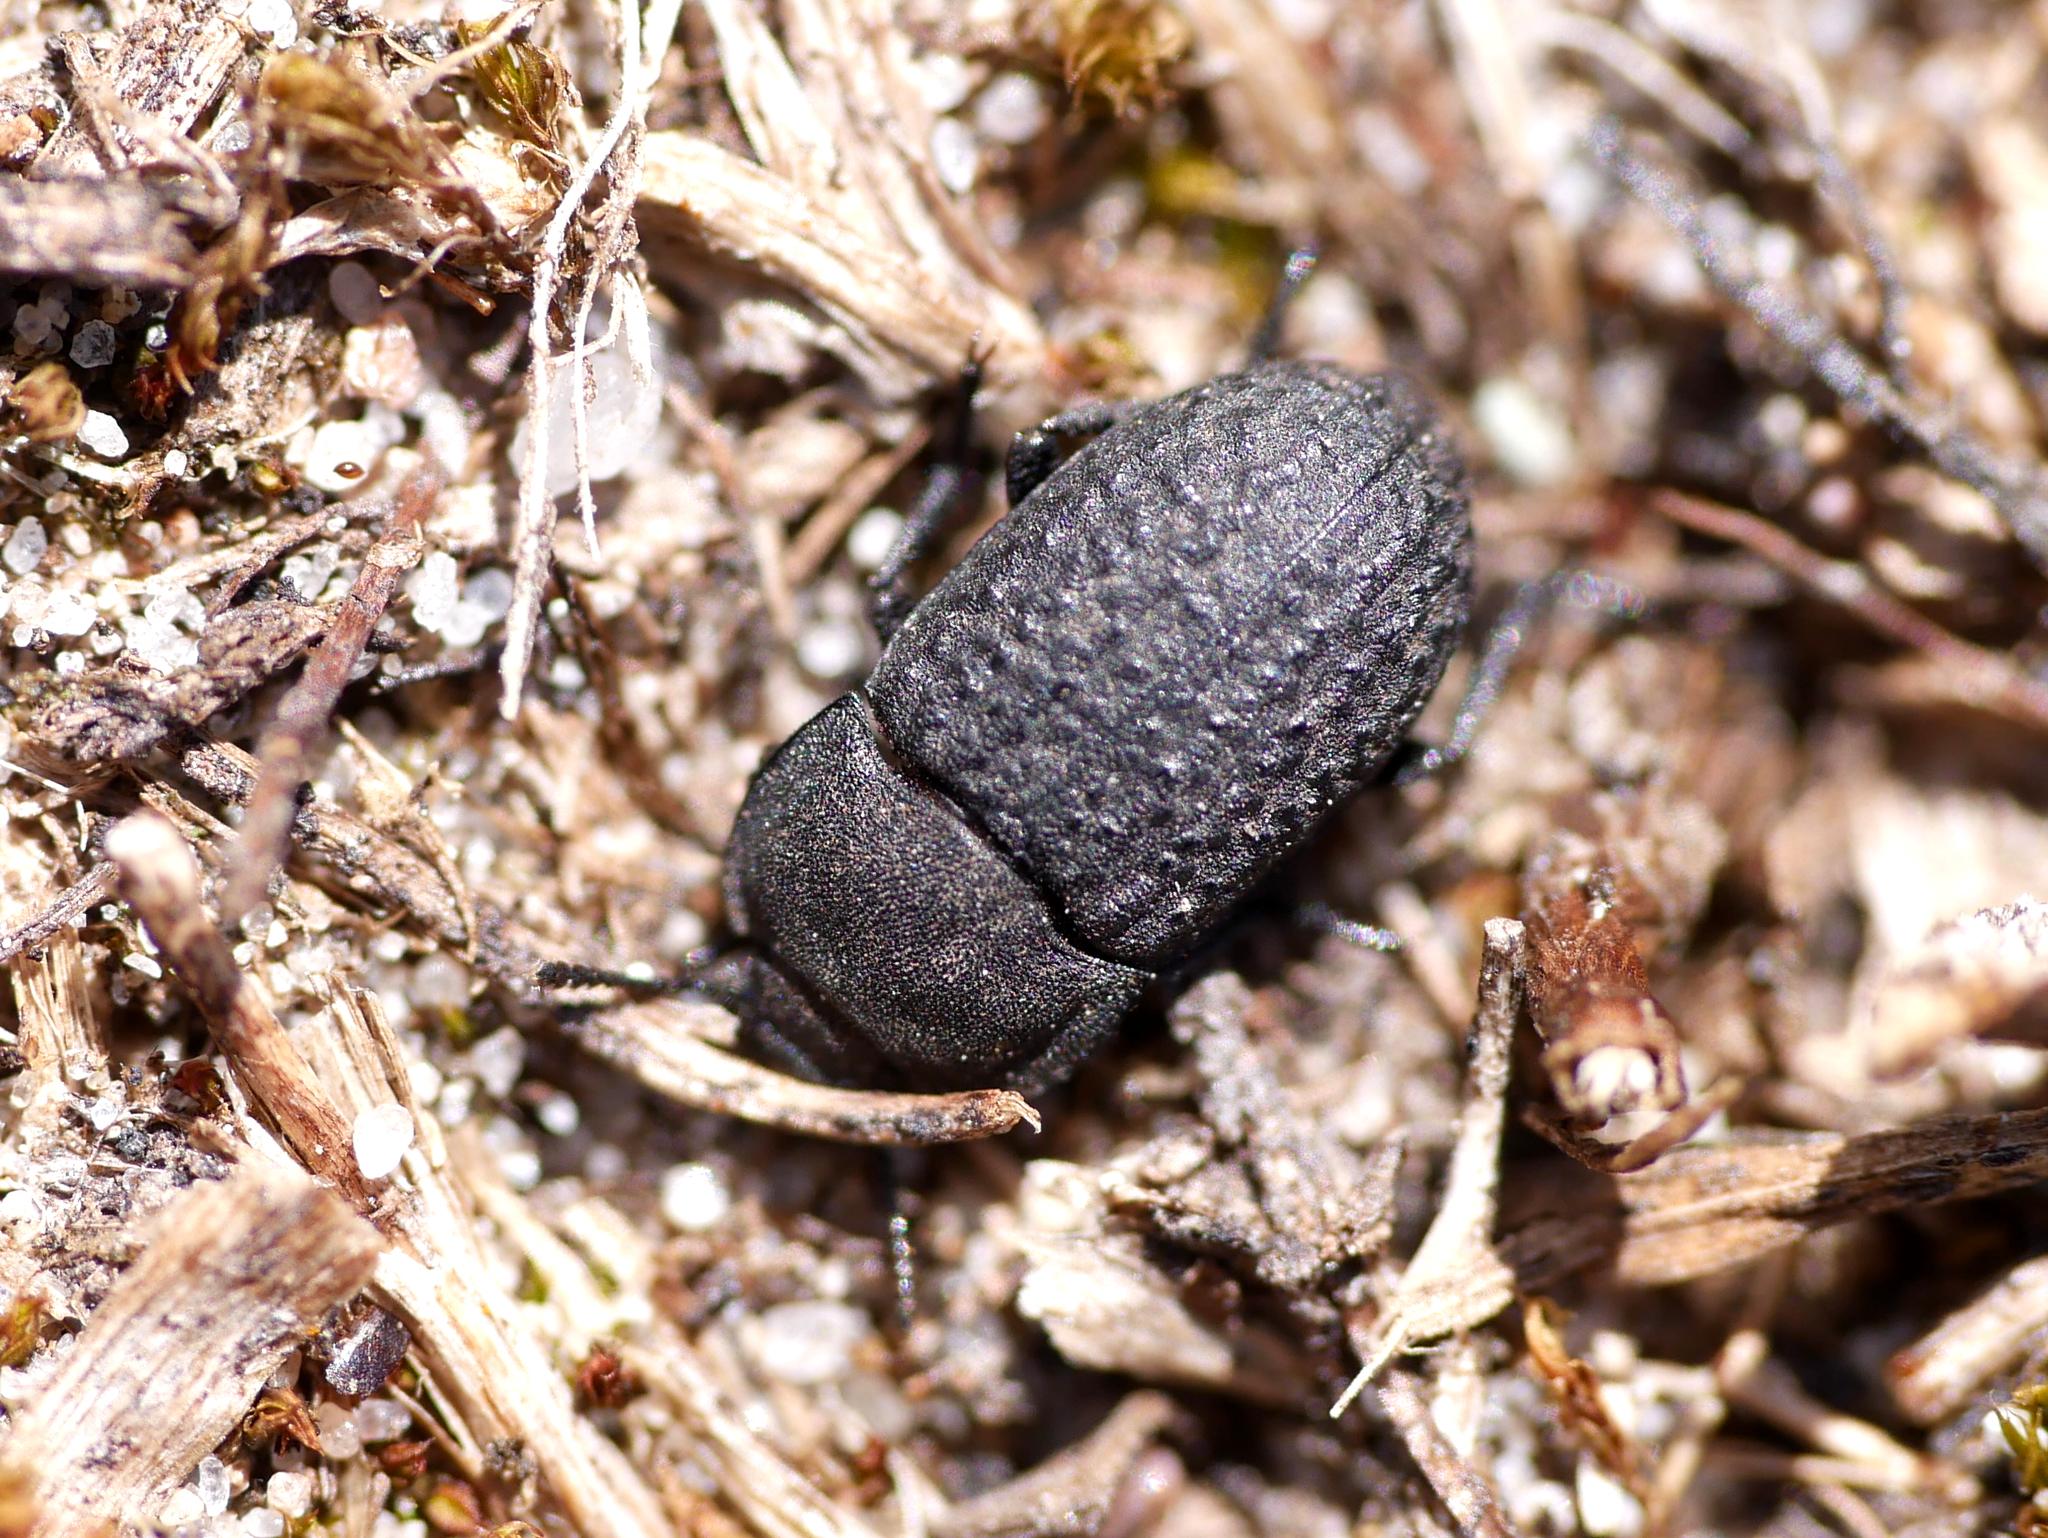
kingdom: Animalia
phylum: Arthropoda
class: Insecta
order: Coleoptera
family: Tenebrionidae
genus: Opatrum
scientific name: Opatrum sabulosum
